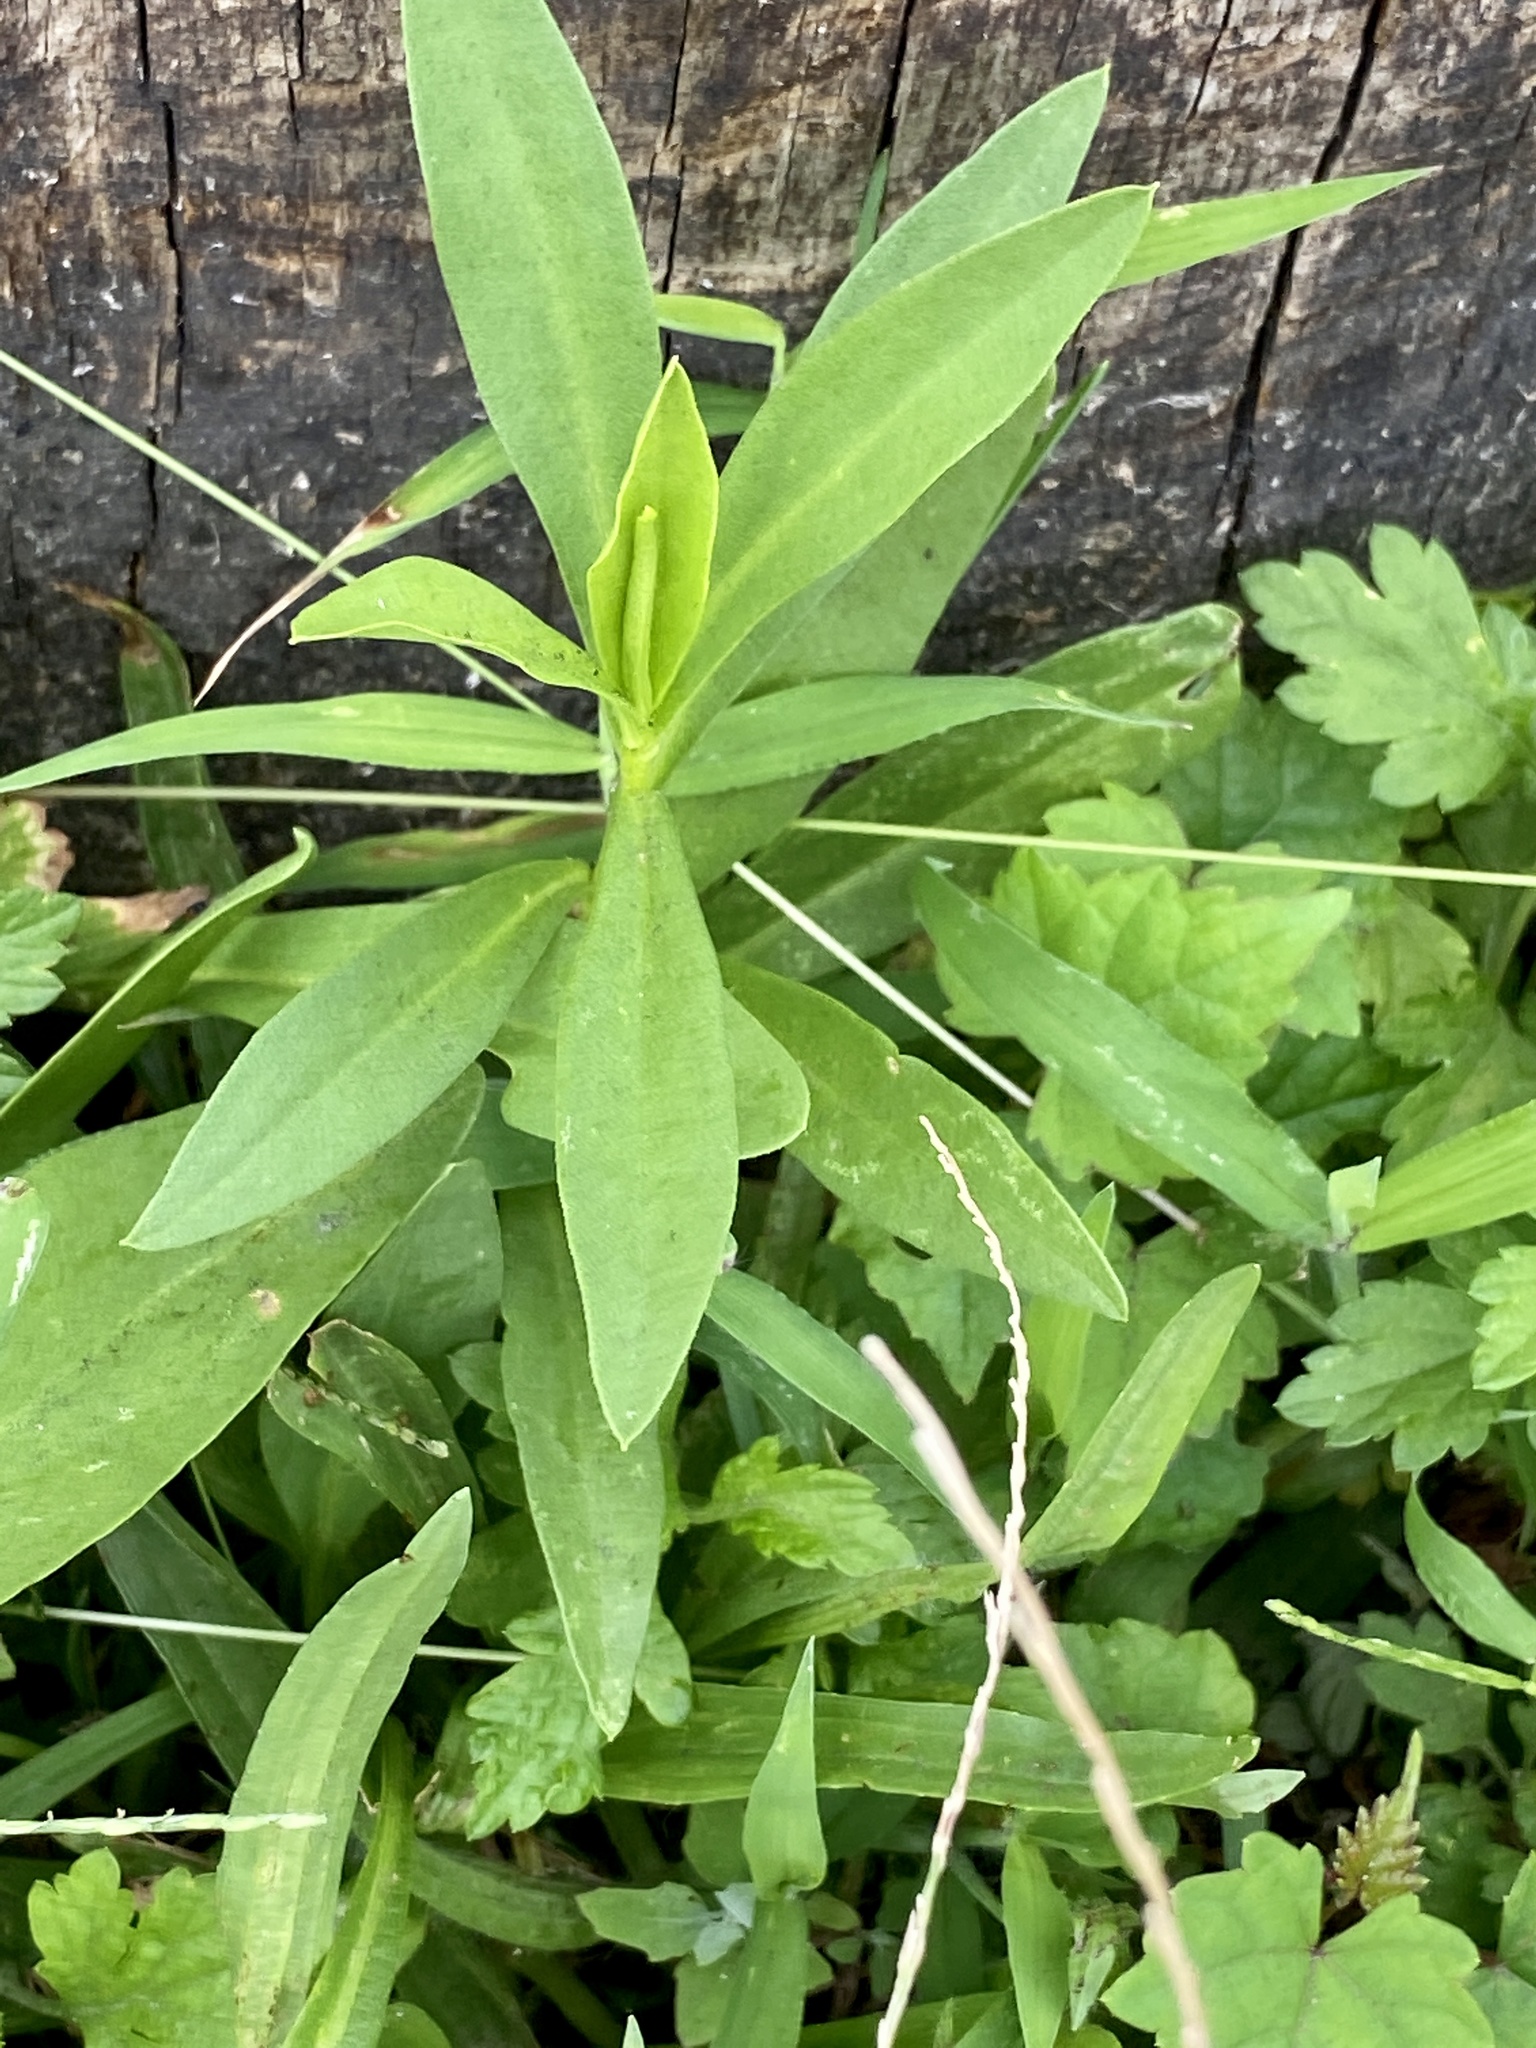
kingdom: Plantae
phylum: Tracheophyta
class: Magnoliopsida
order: Asterales
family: Asteraceae
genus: Solidago
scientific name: Solidago sempervirens
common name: Salt-marsh goldenrod
